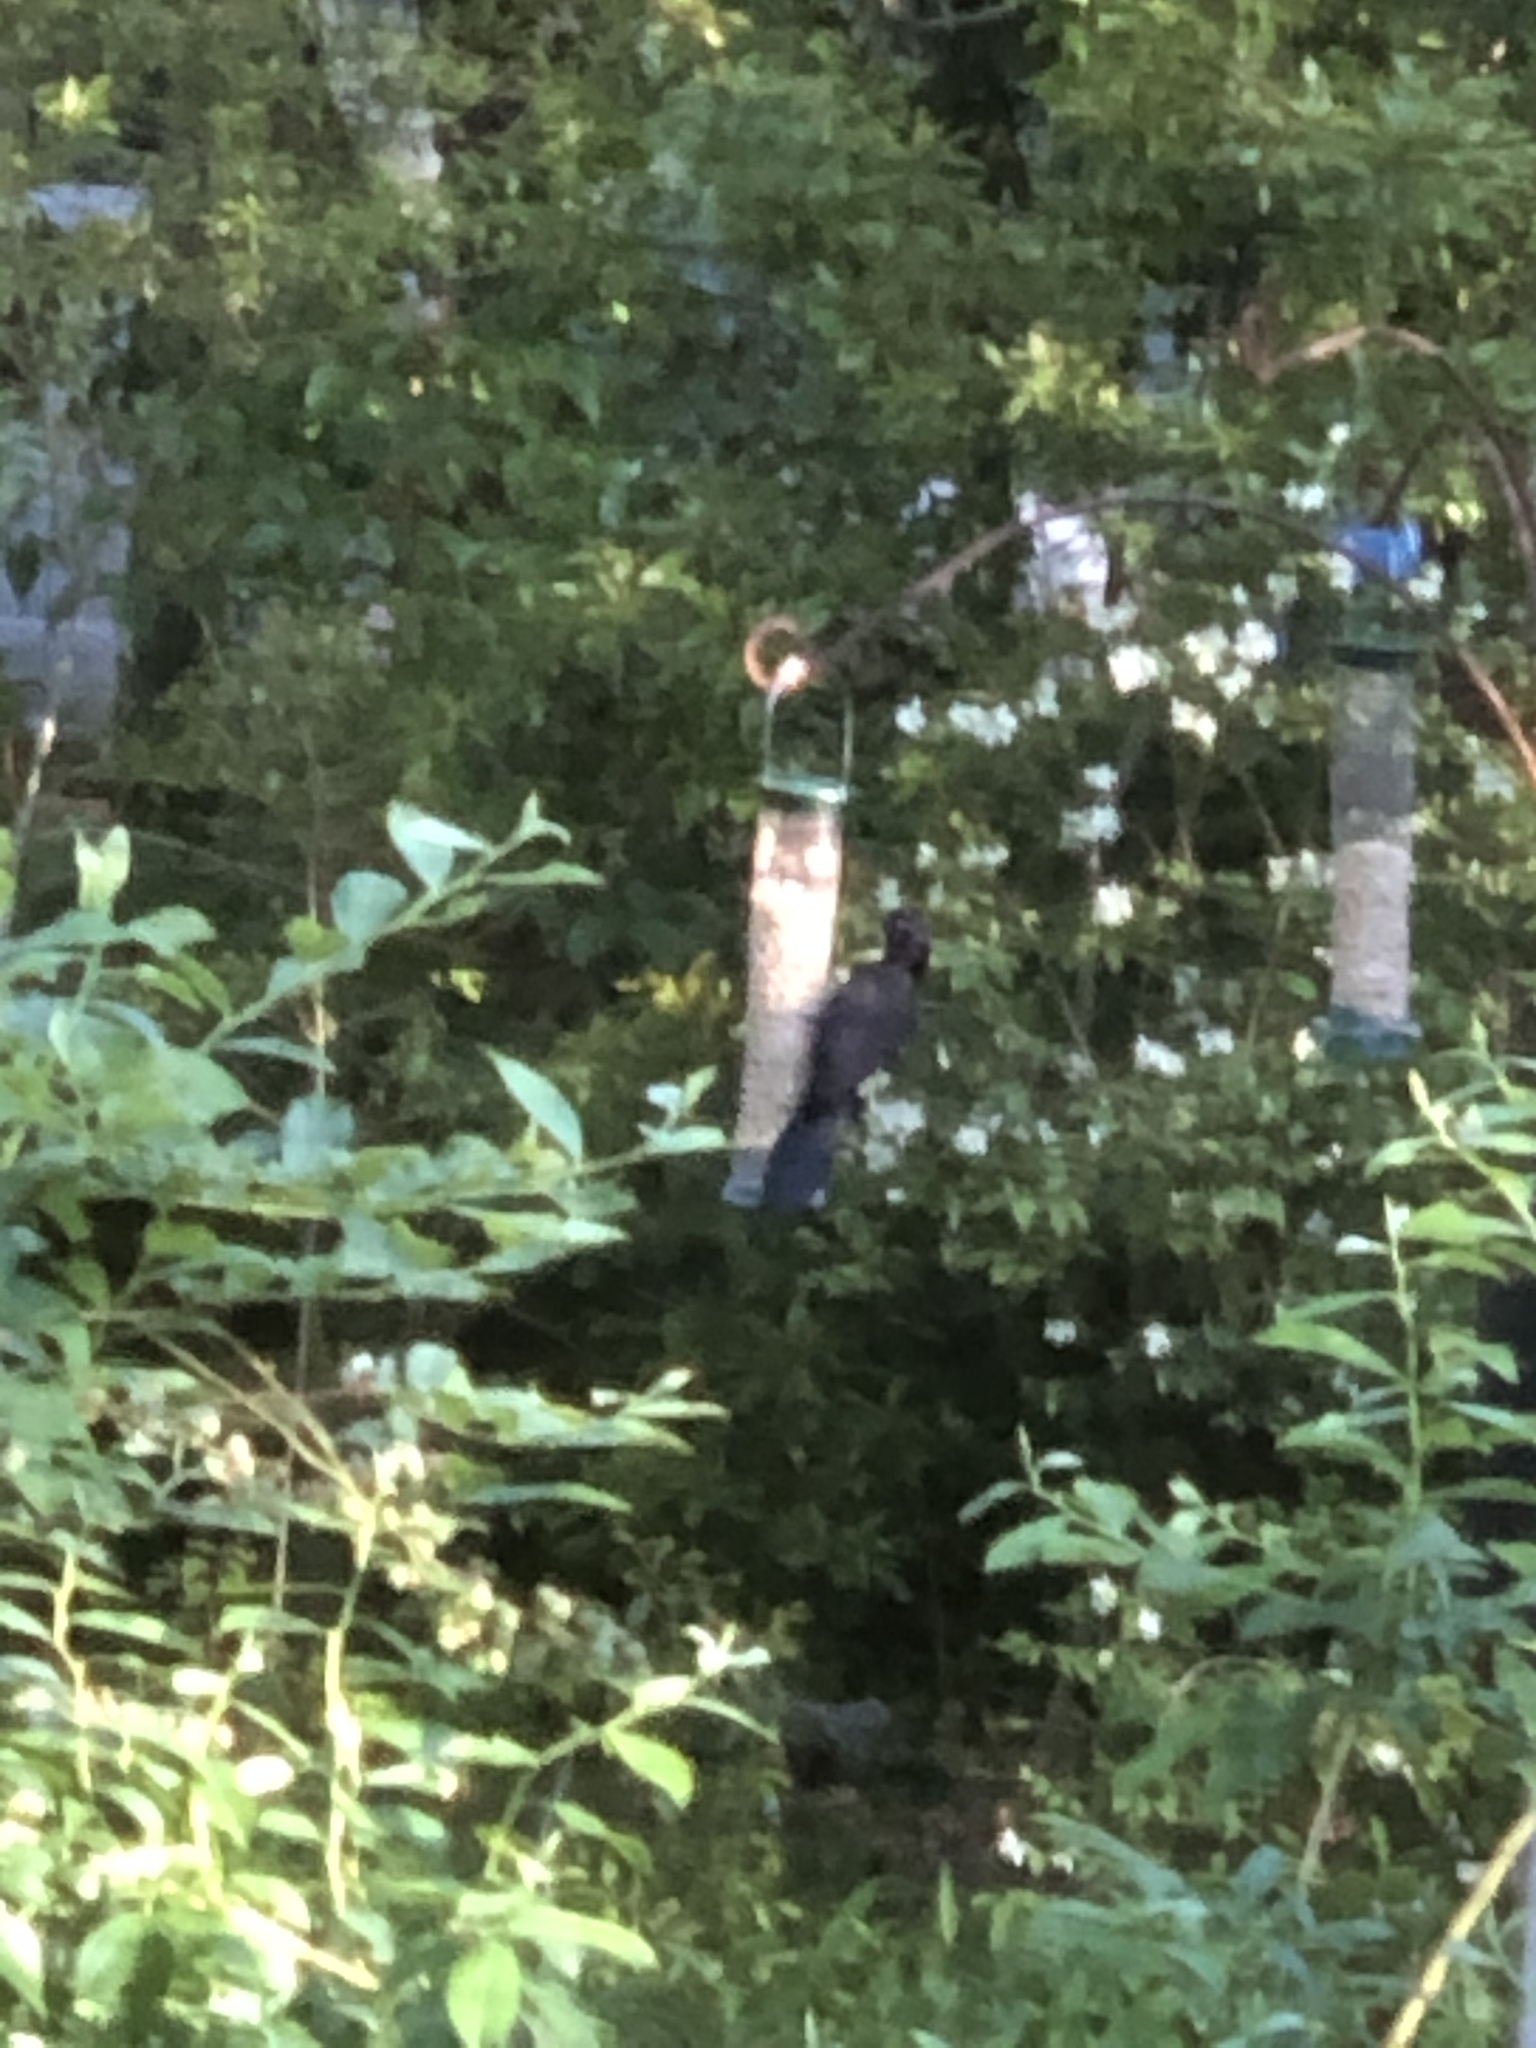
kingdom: Animalia
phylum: Chordata
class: Aves
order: Passeriformes
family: Icteridae
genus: Quiscalus
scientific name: Quiscalus quiscula
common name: Common grackle
